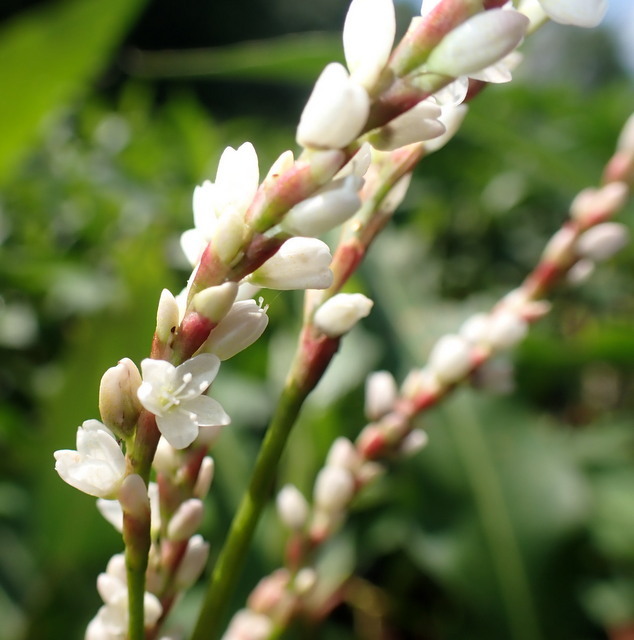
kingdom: Plantae
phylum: Tracheophyta
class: Magnoliopsida
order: Caryophyllales
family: Polygonaceae
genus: Persicaria
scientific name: Persicaria hydropiperoides
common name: Swamp smartweed
